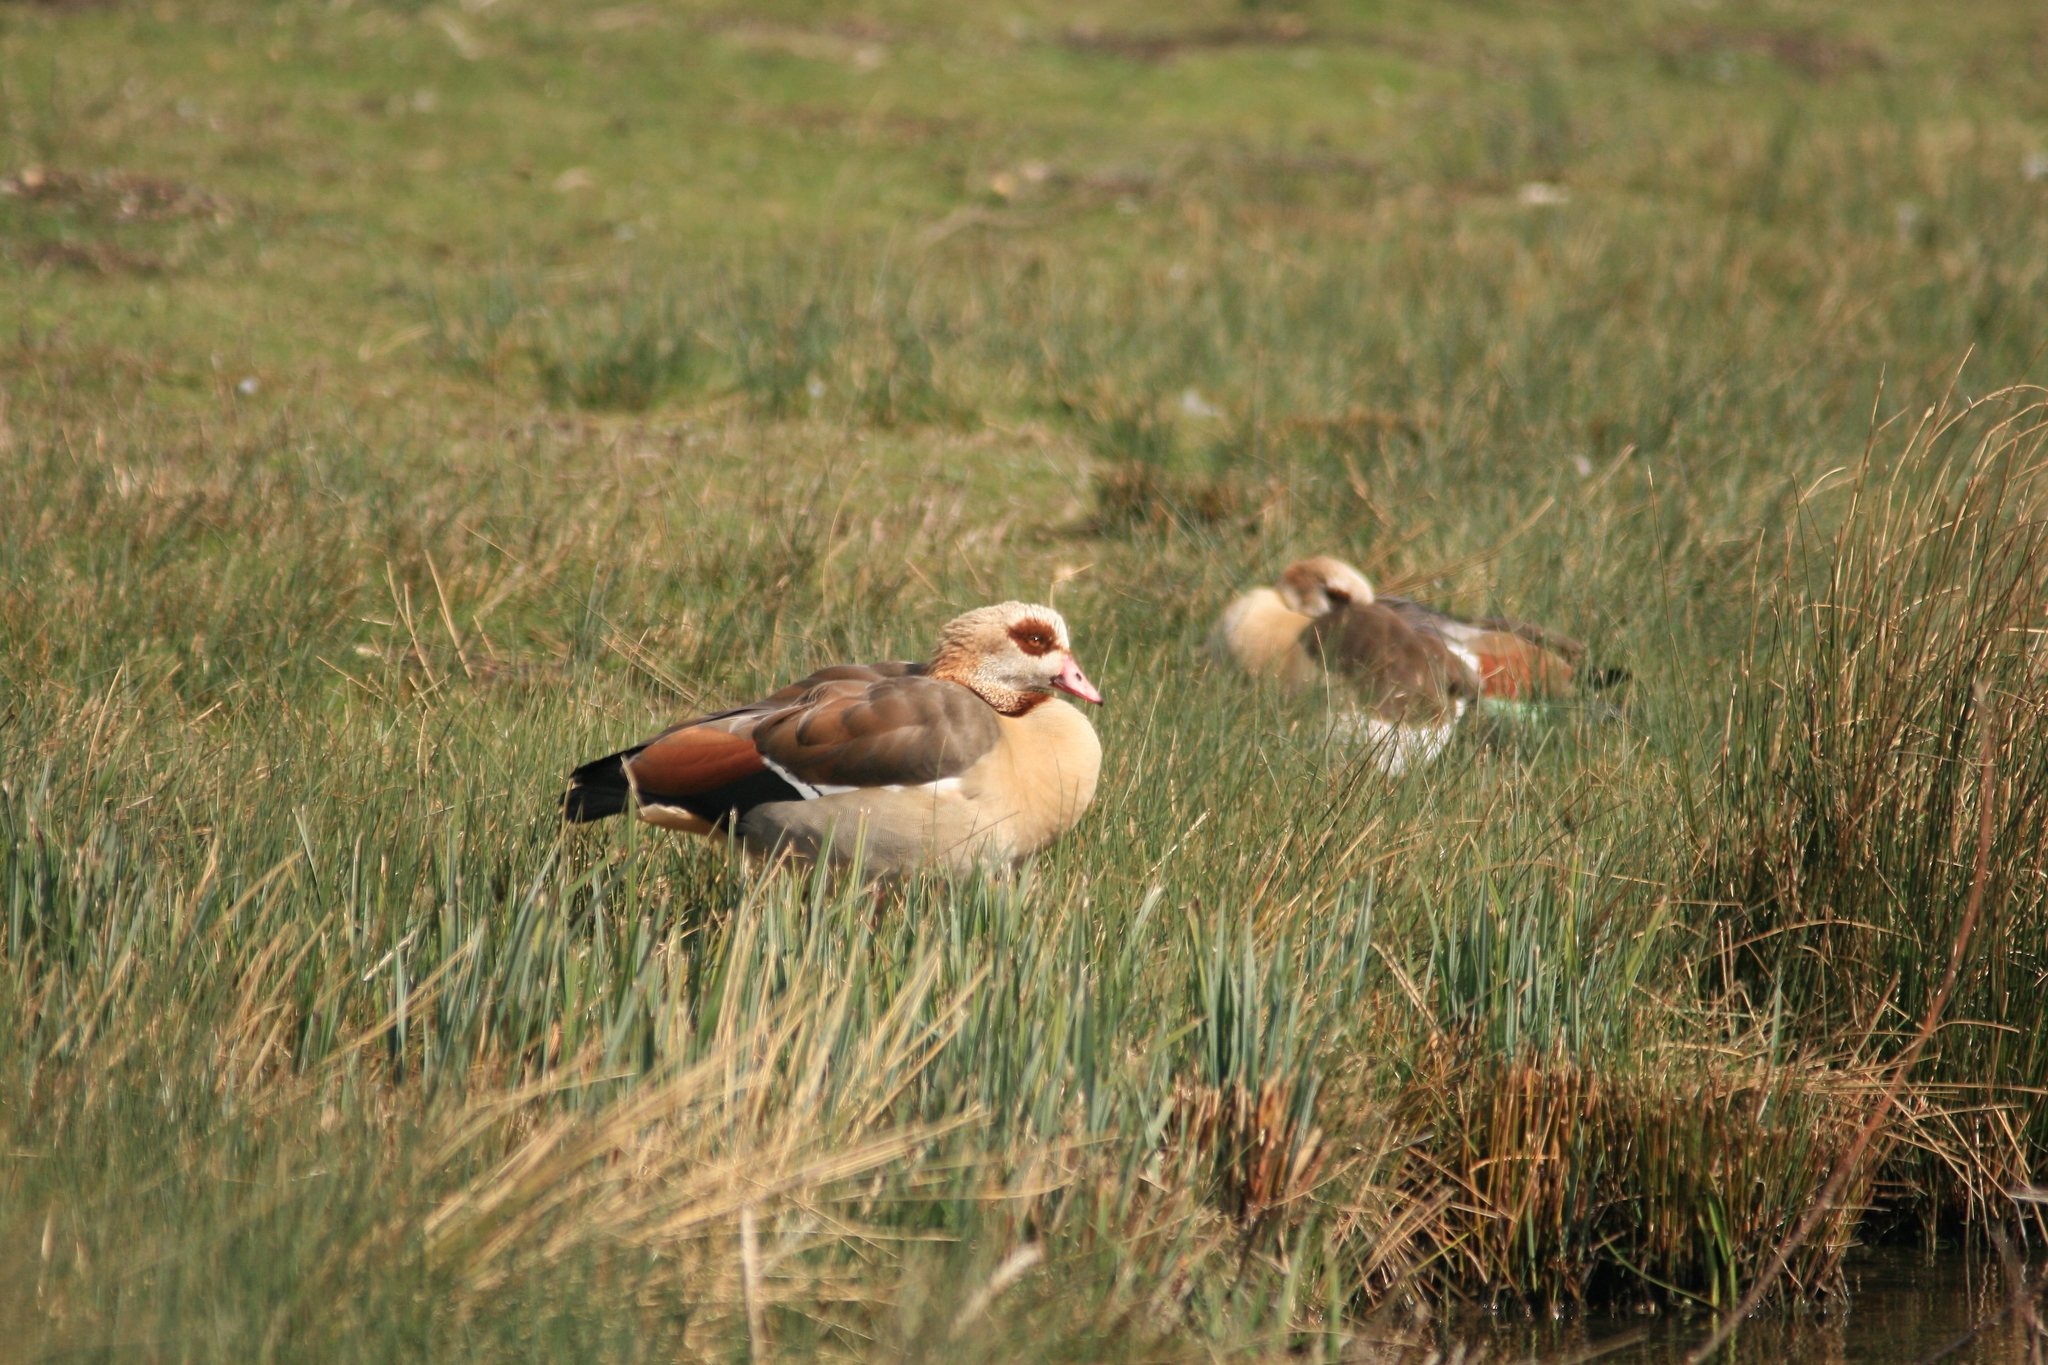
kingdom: Animalia
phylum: Chordata
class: Aves
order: Anseriformes
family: Anatidae
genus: Alopochen
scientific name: Alopochen aegyptiaca
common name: Egyptian goose
